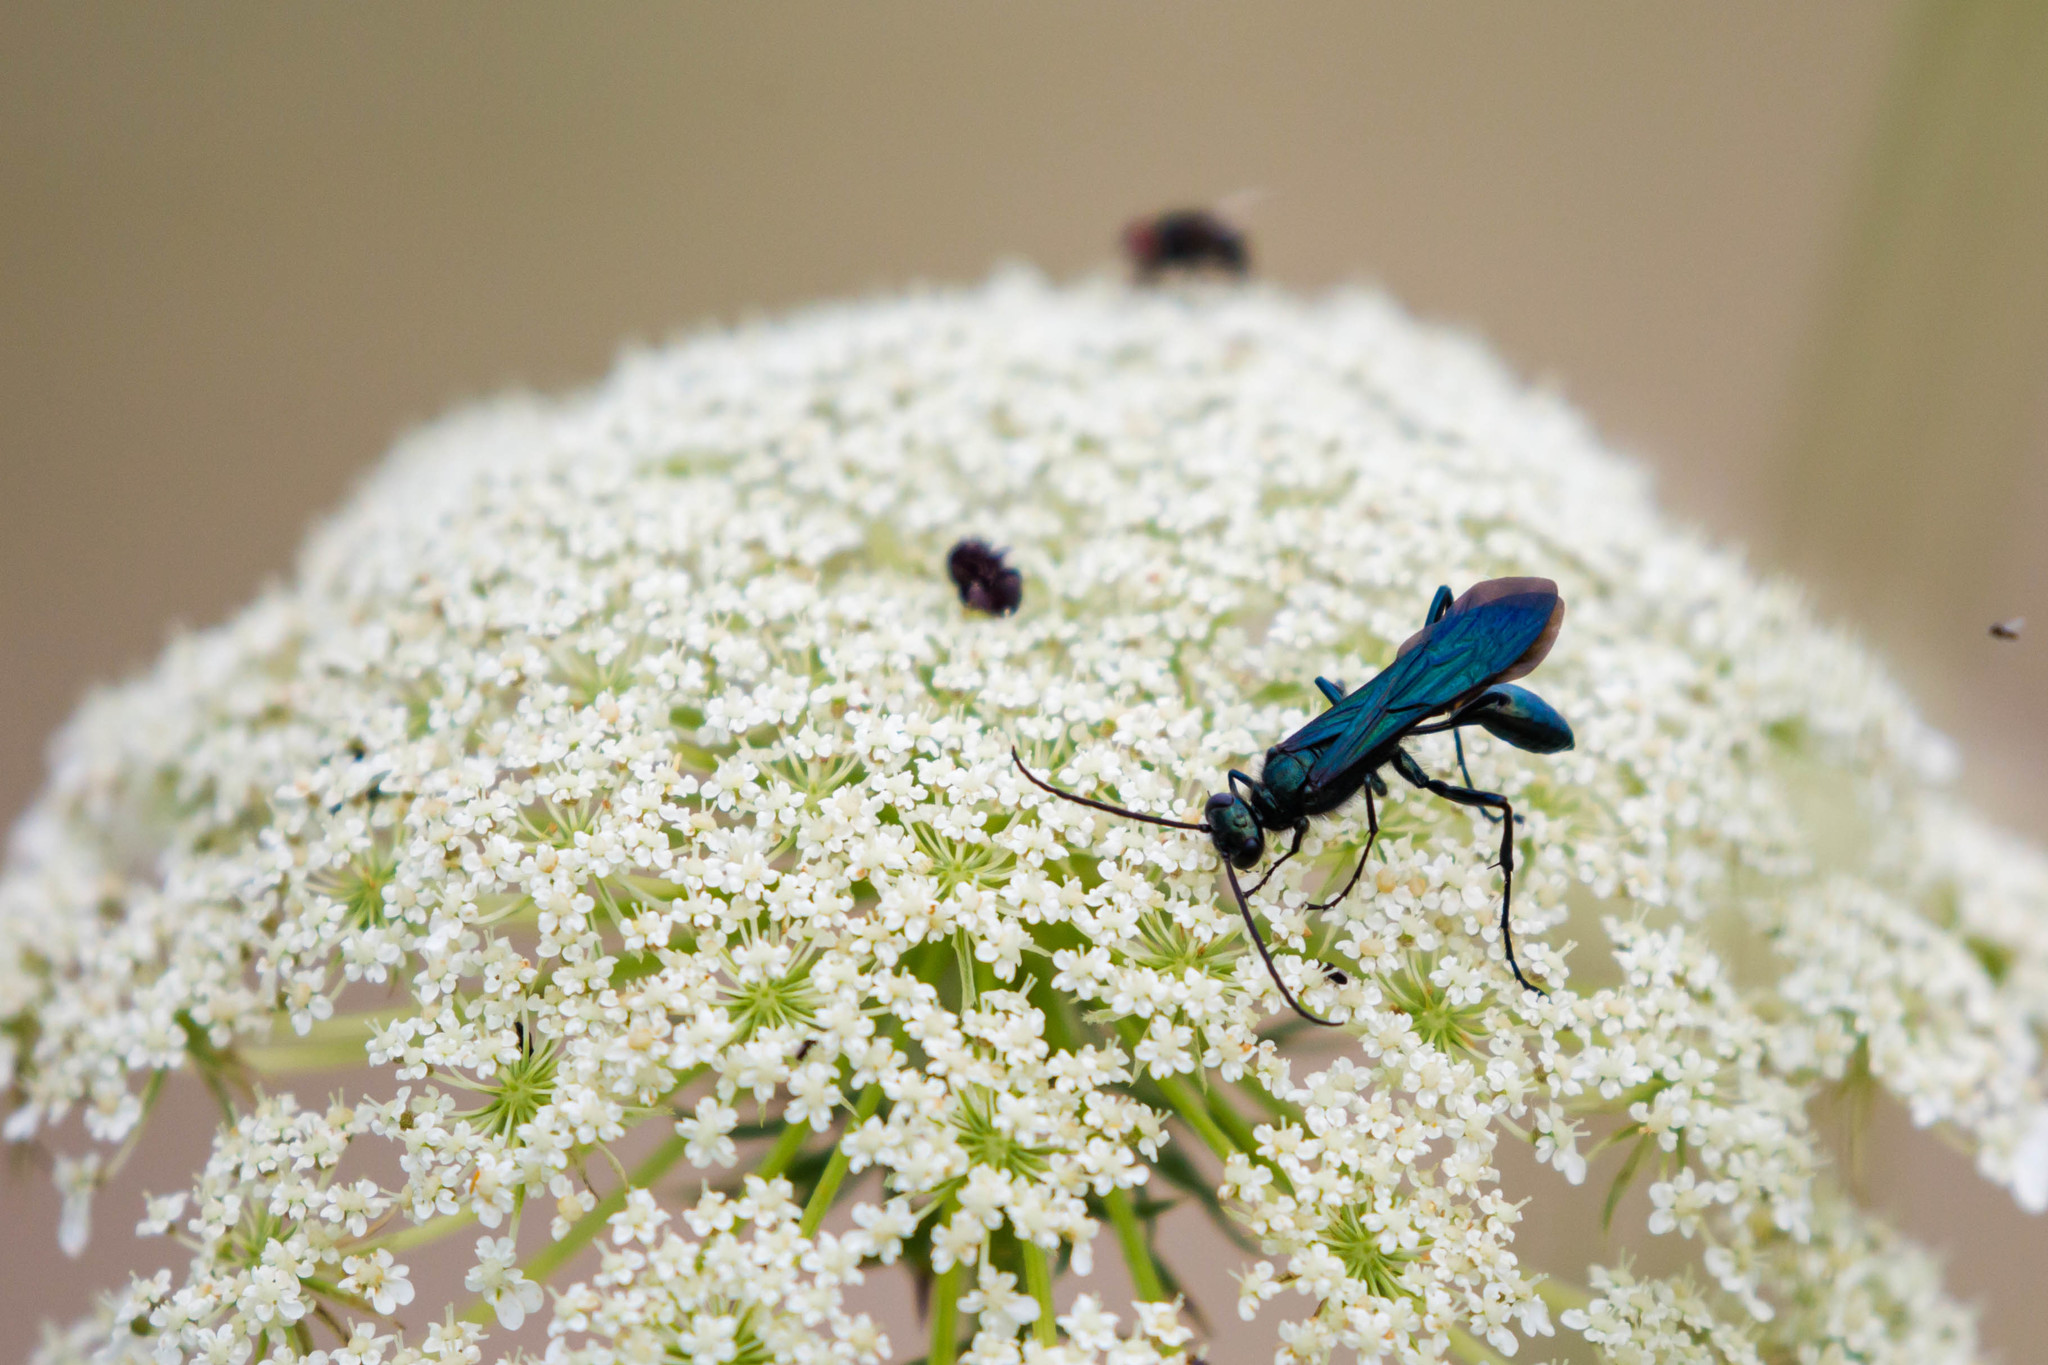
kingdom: Animalia
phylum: Arthropoda
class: Insecta
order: Hymenoptera
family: Sphecidae
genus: Chalybion
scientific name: Chalybion californicum
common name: Mud dauber
